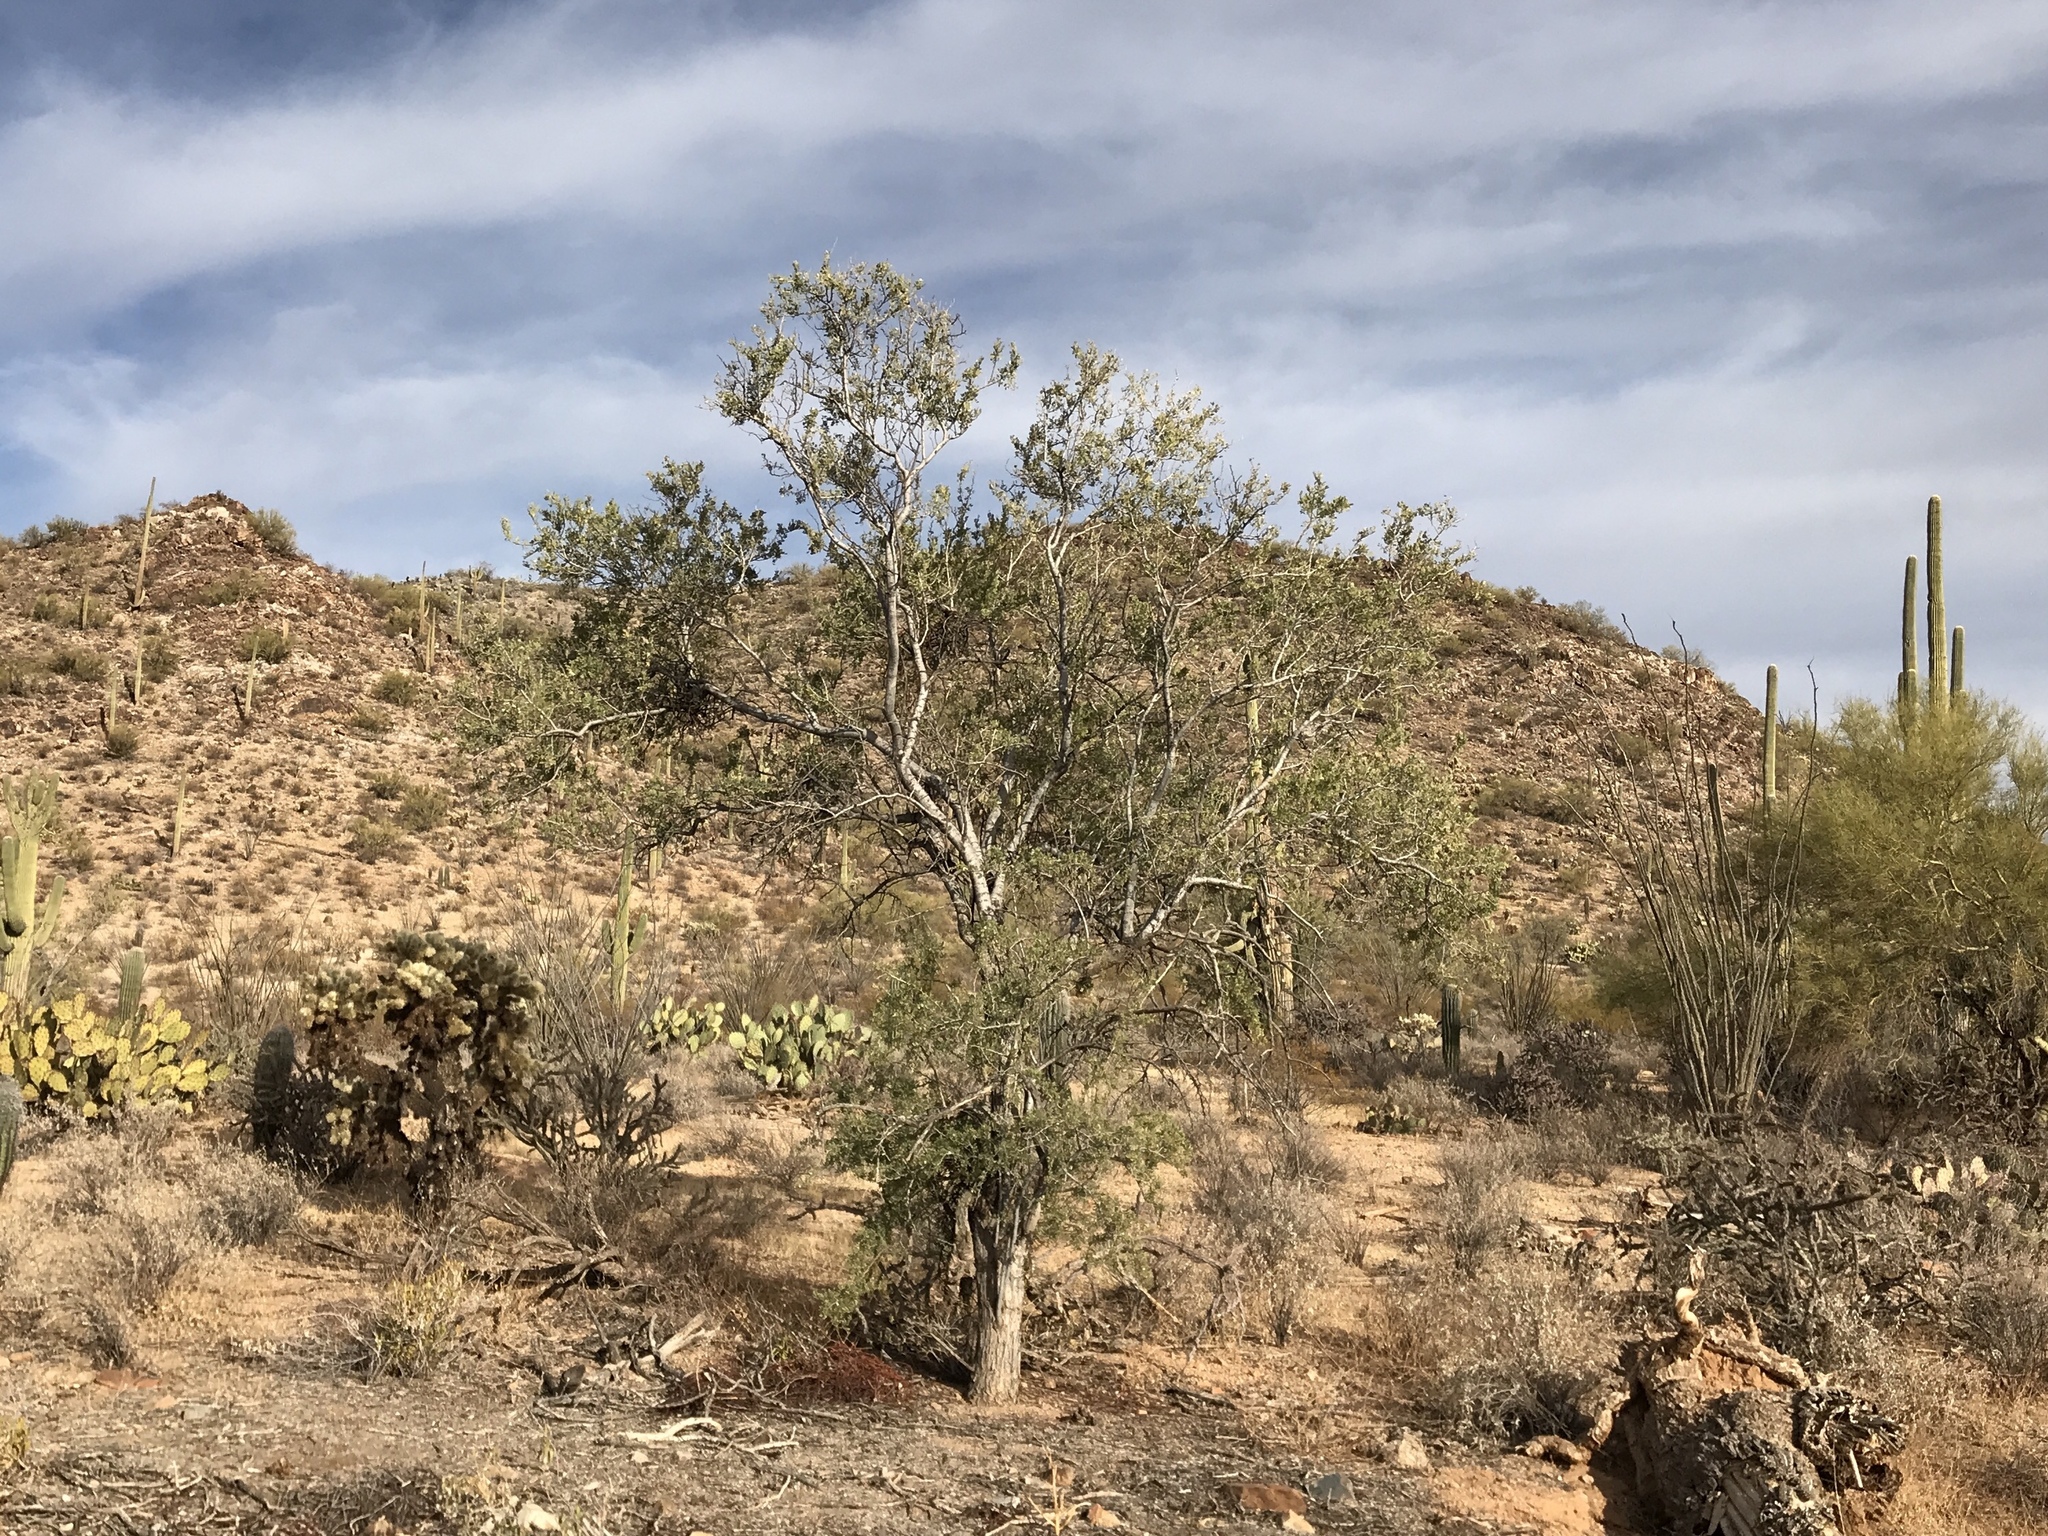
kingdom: Plantae
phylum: Tracheophyta
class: Magnoliopsida
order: Fabales
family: Fabaceae
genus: Olneya
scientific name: Olneya tesota
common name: Desert ironwood
